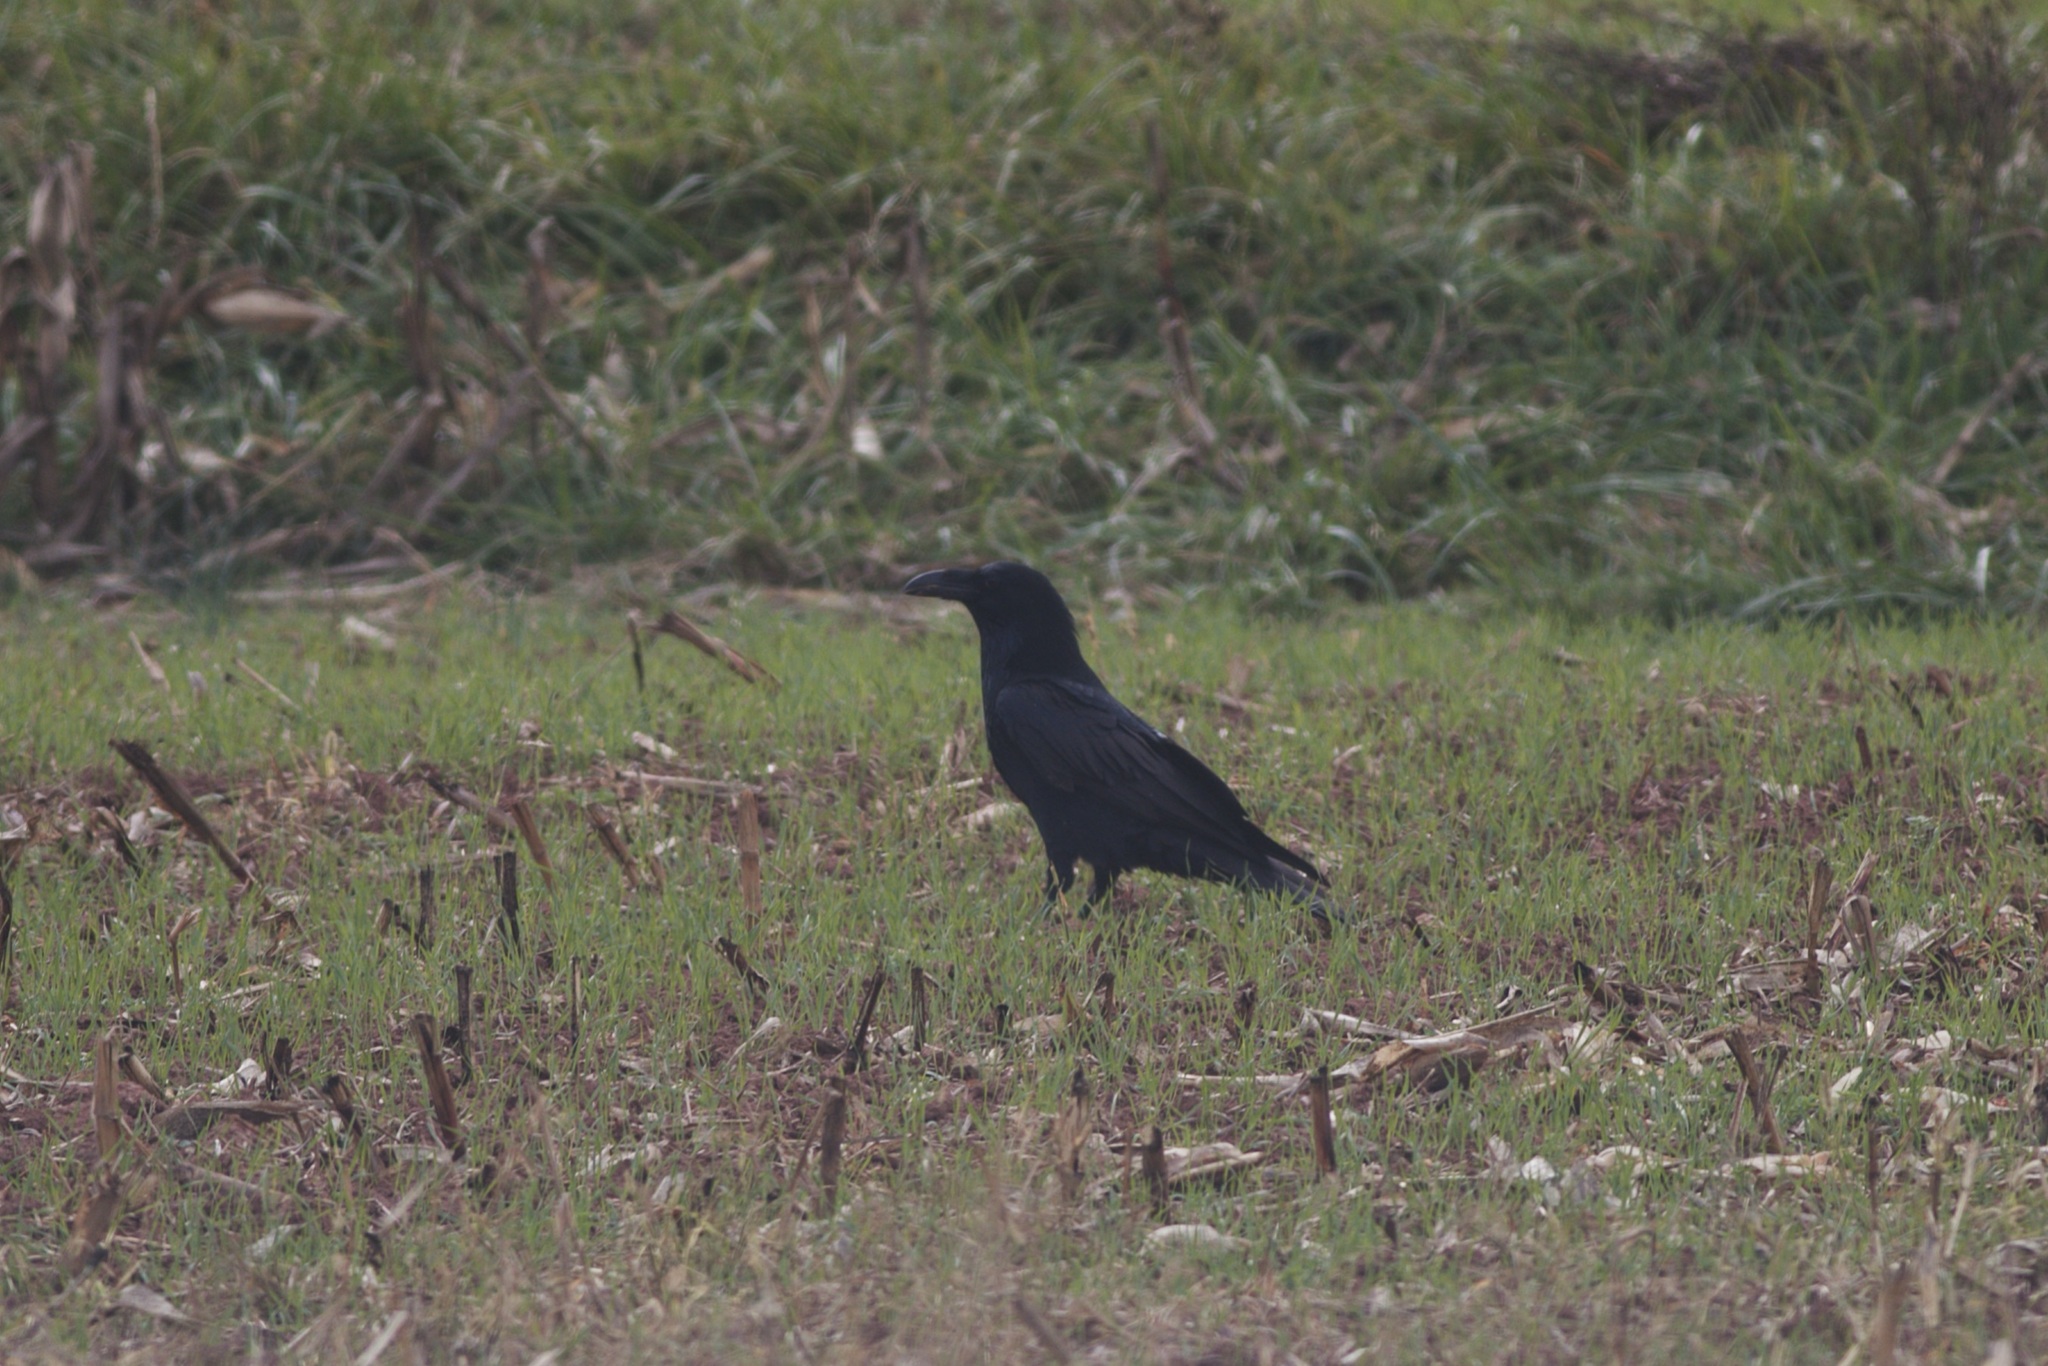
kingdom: Animalia
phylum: Chordata
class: Aves
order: Passeriformes
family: Corvidae
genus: Corvus
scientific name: Corvus corax
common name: Common raven
